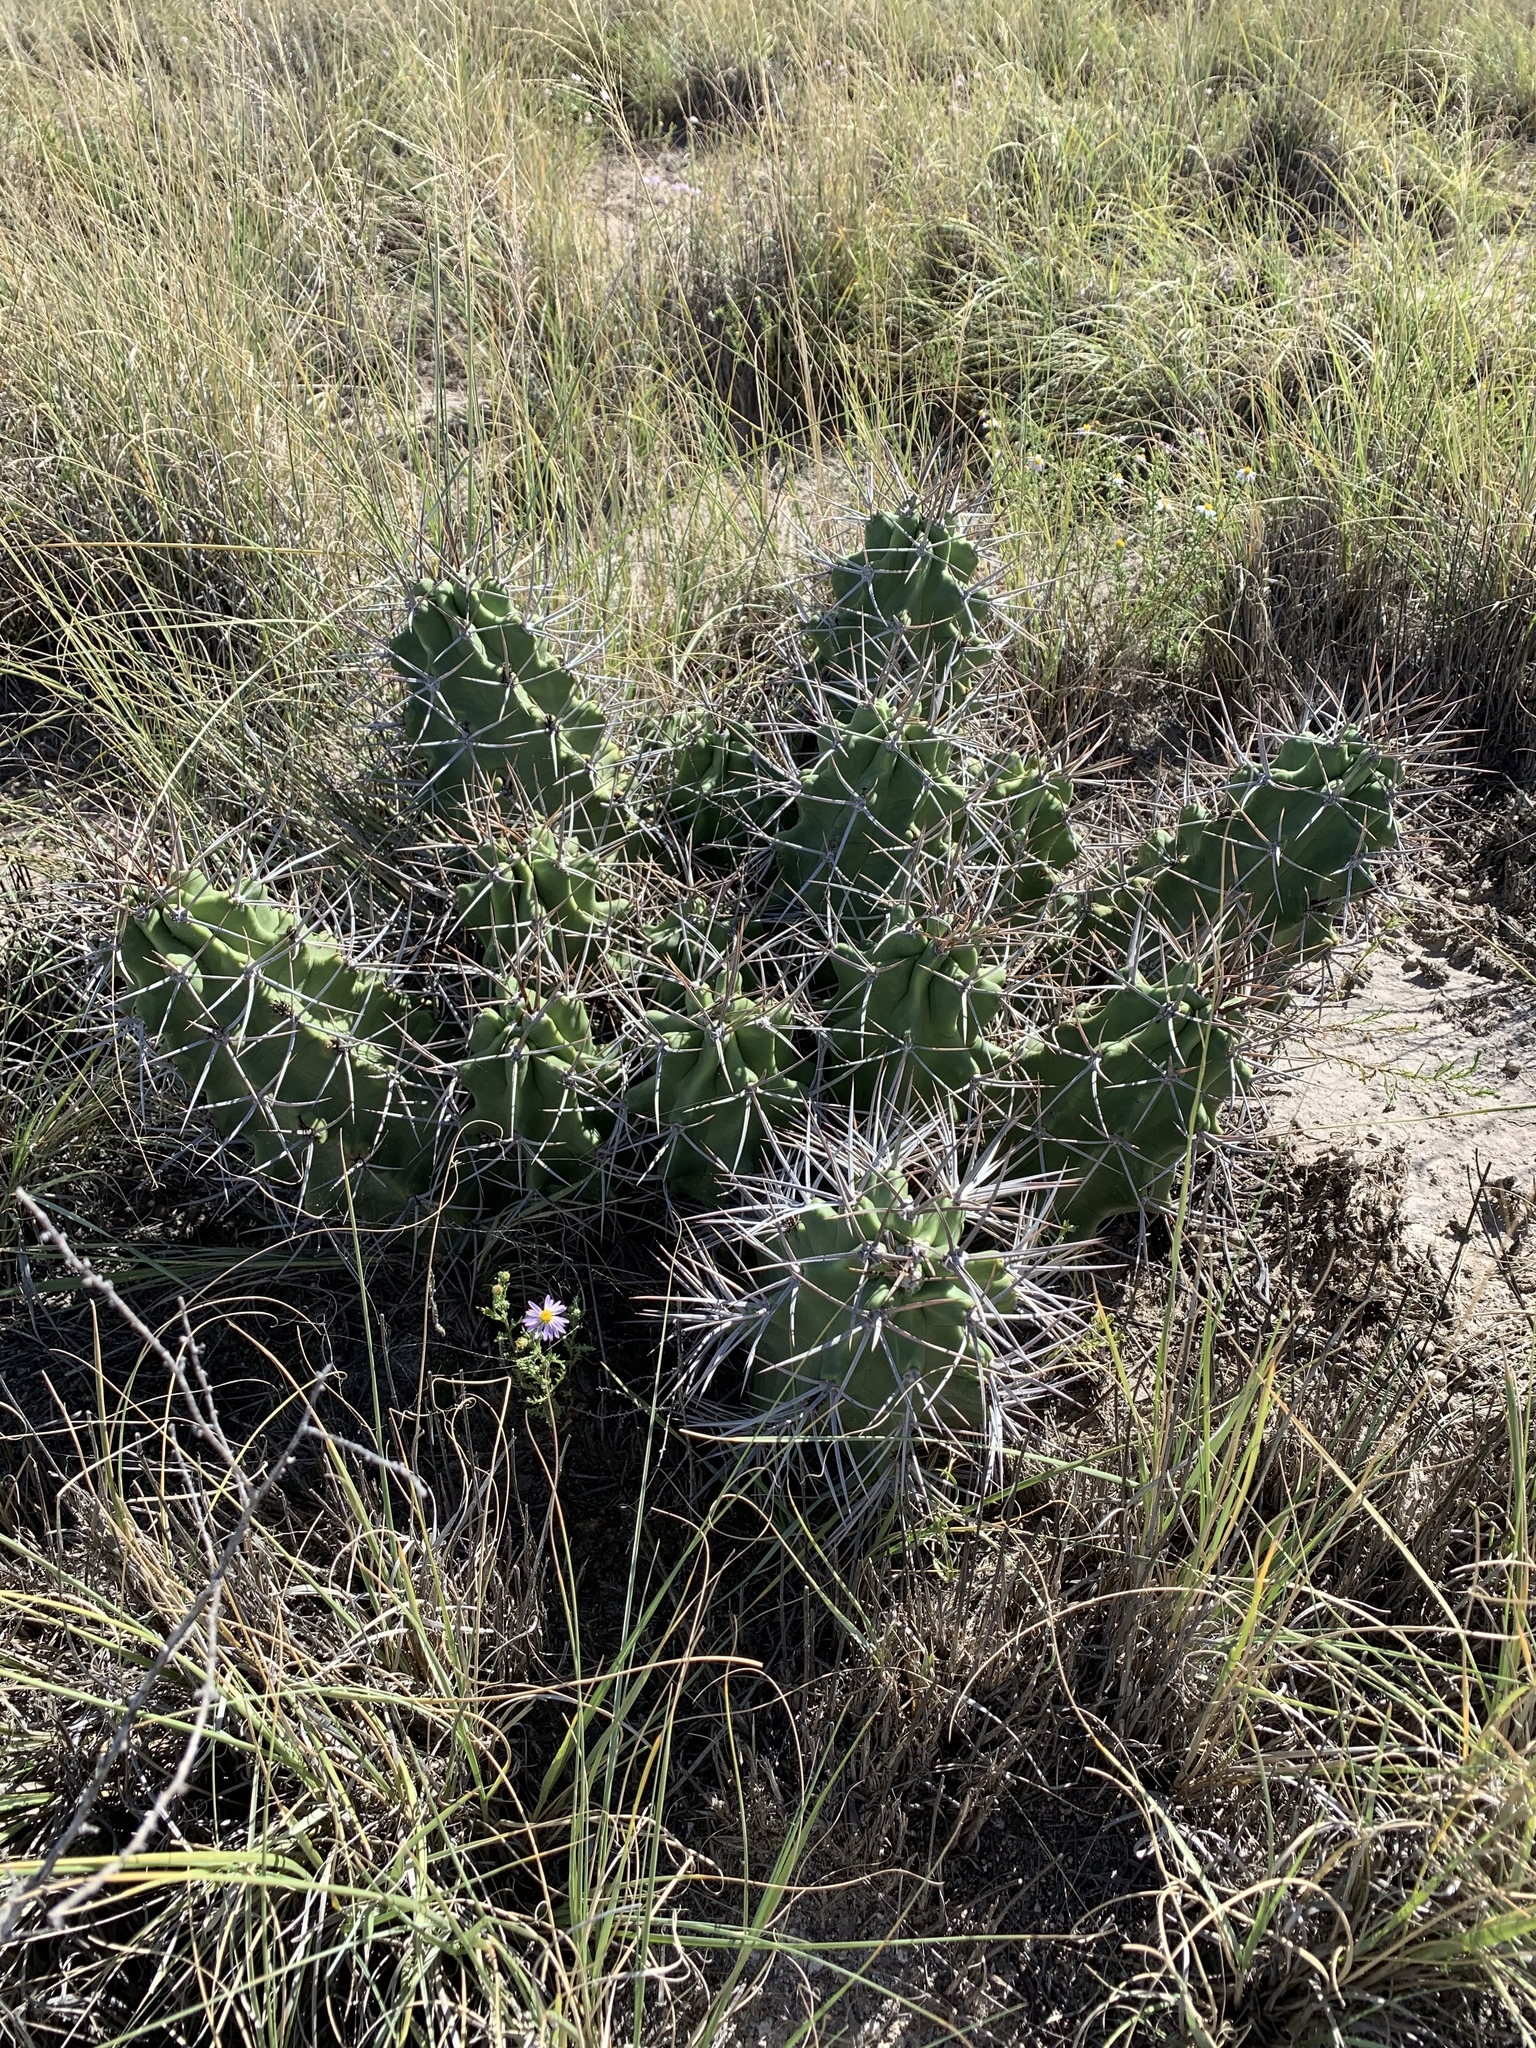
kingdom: Plantae
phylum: Tracheophyta
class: Magnoliopsida
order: Caryophyllales
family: Cactaceae
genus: Echinocereus
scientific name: Echinocereus triglochidiatus
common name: Claretcup hedgehog
